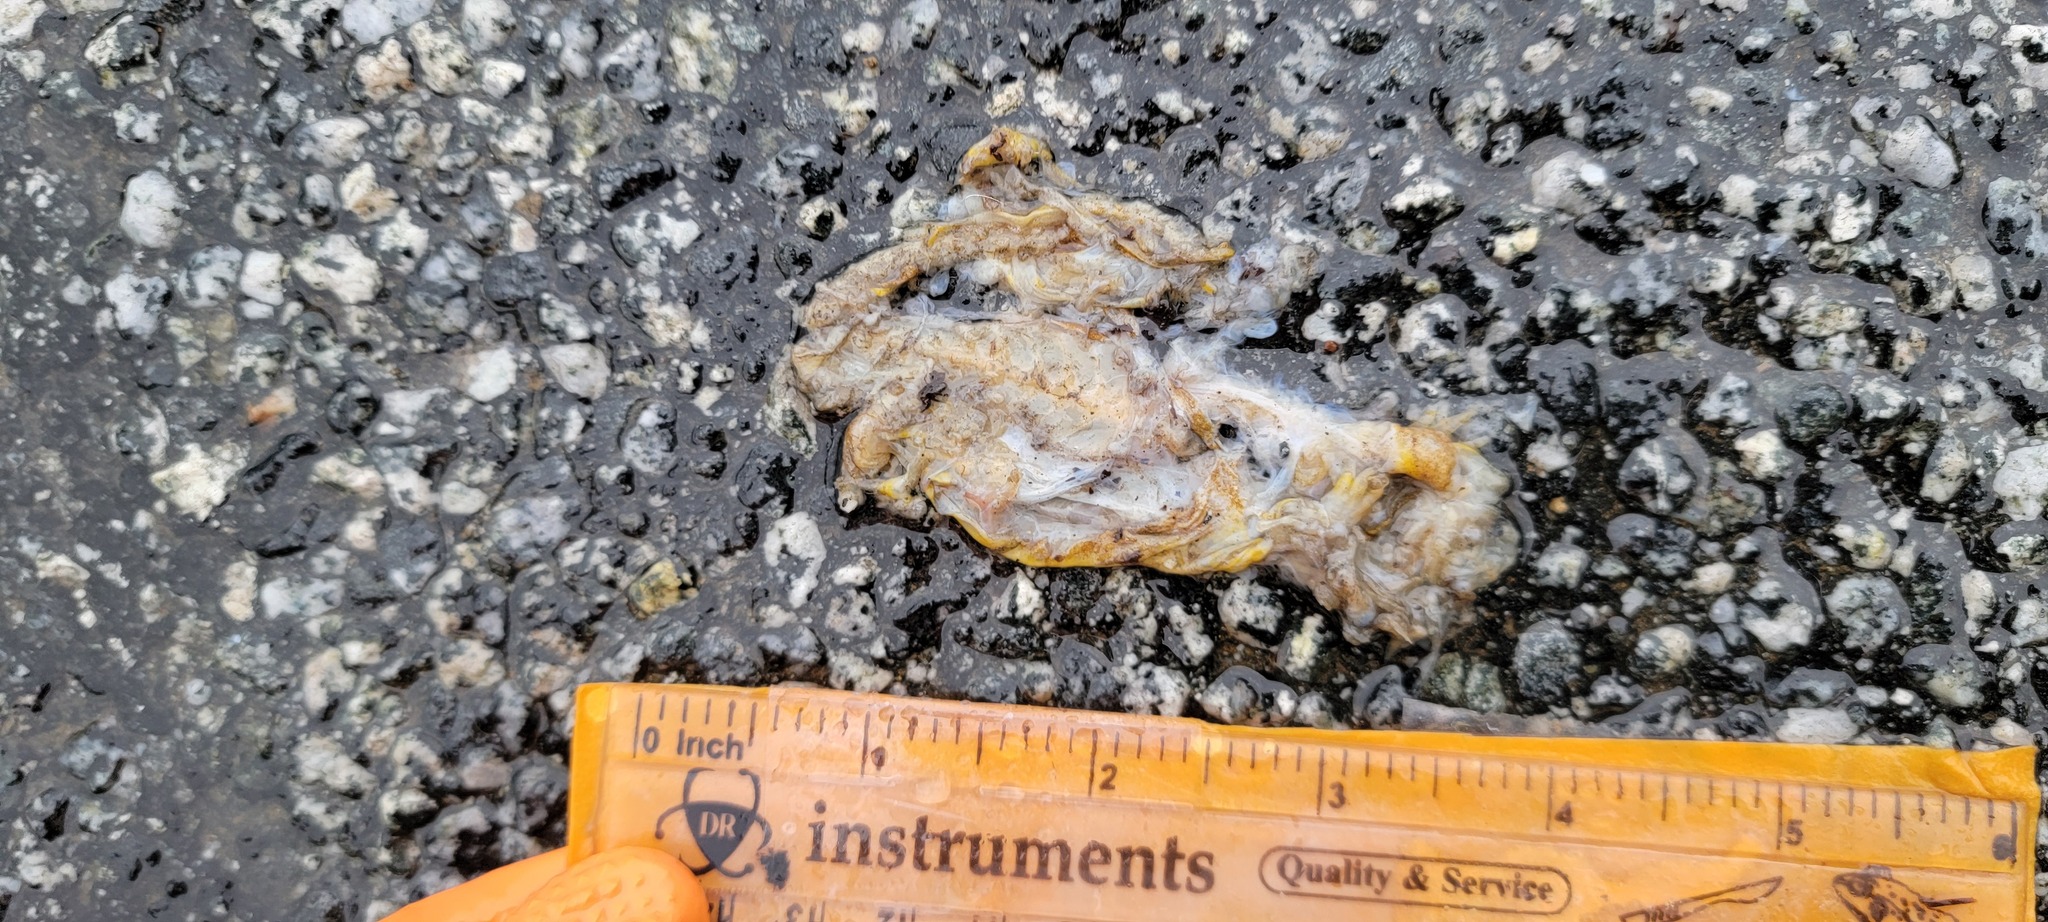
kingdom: Animalia
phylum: Chordata
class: Amphibia
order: Caudata
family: Salamandridae
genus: Taricha
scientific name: Taricha
